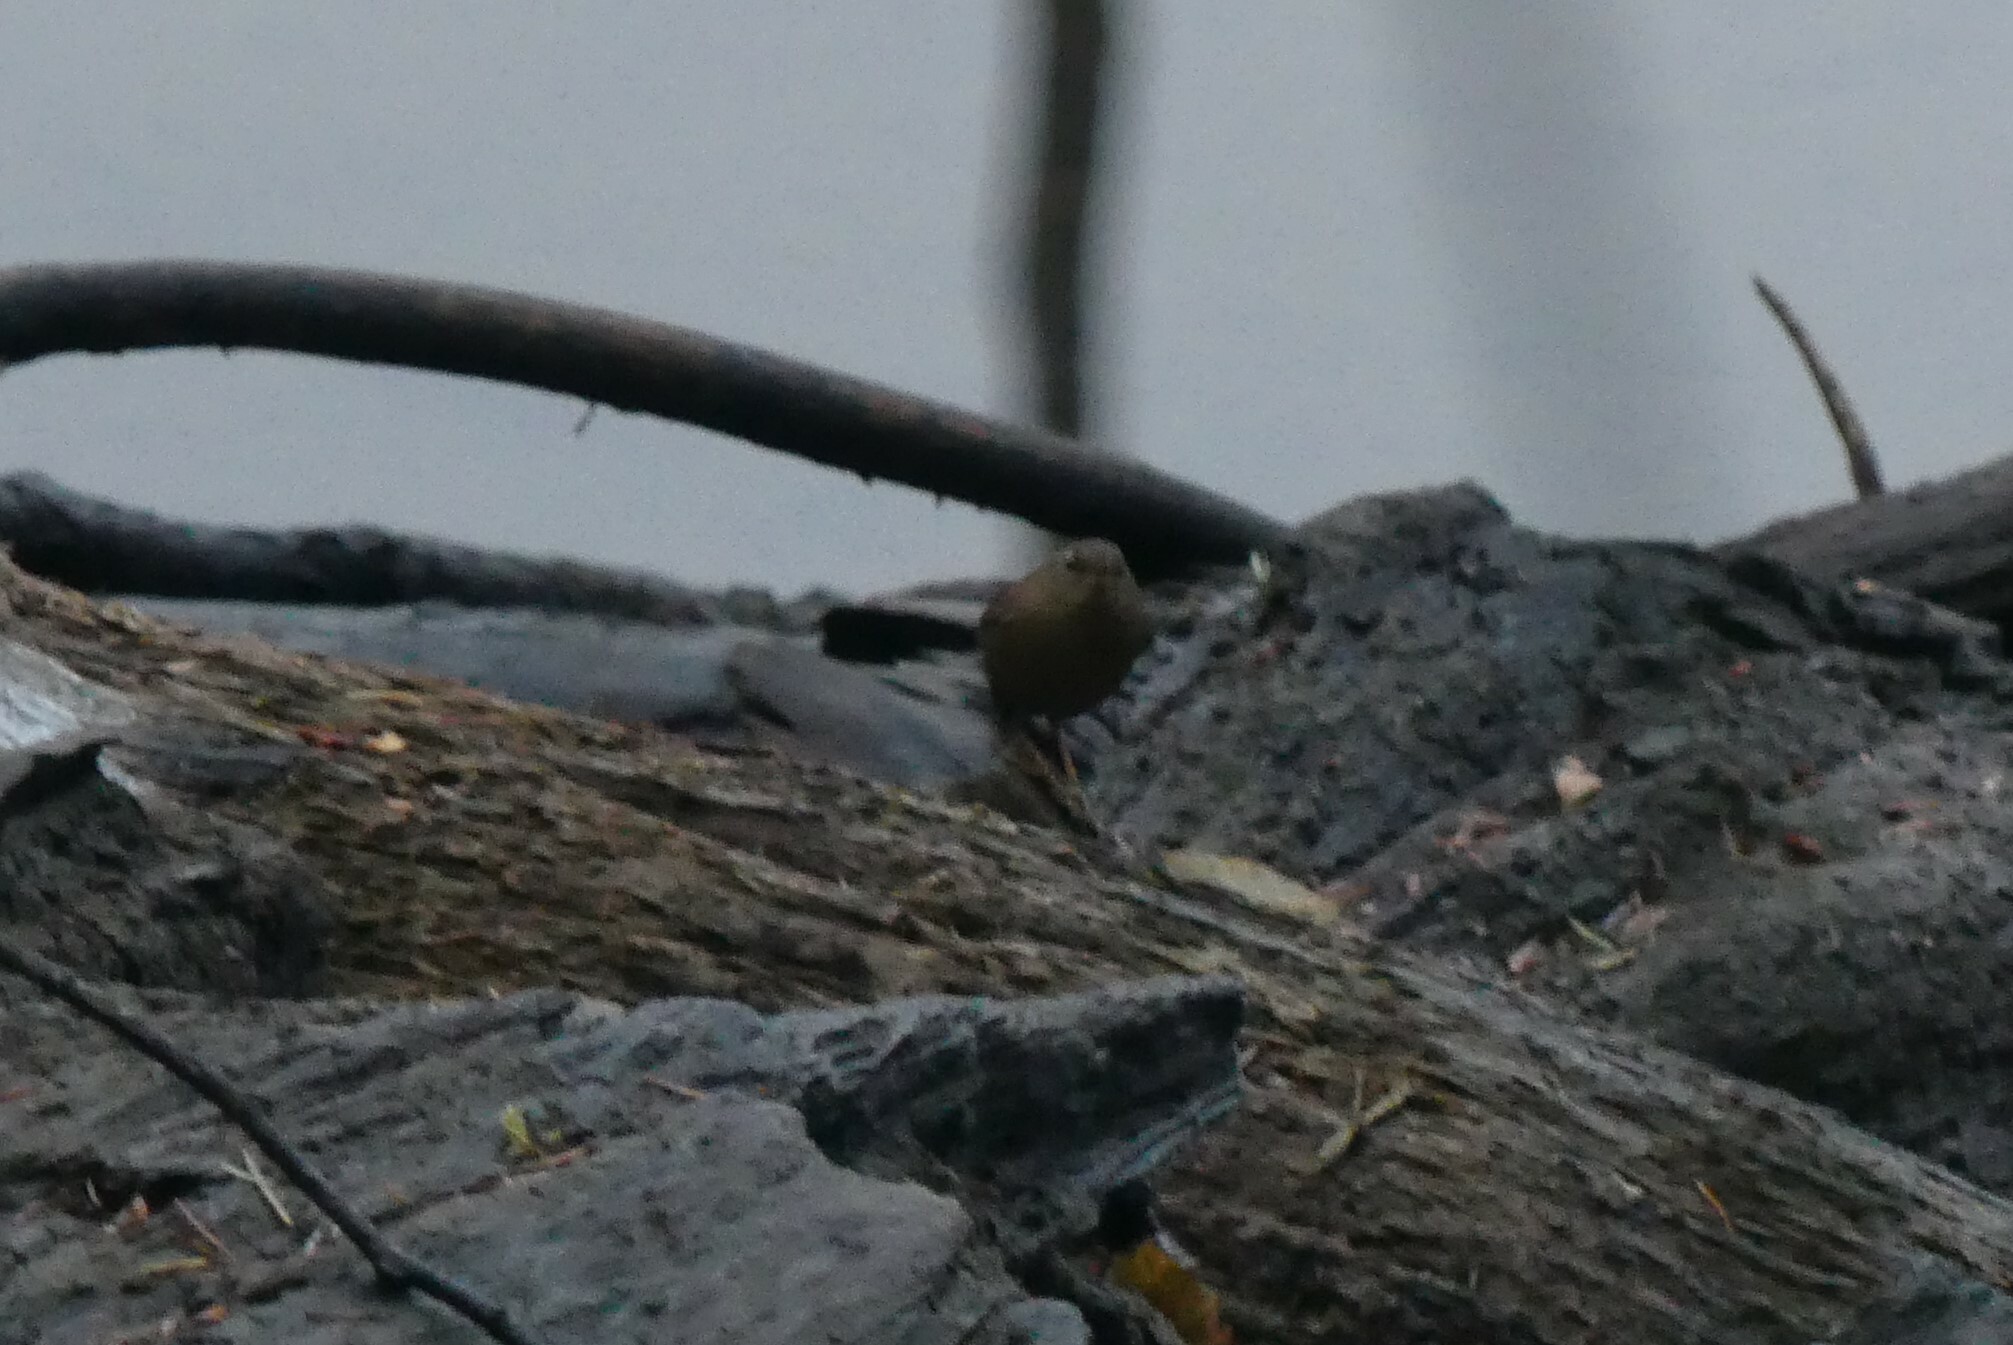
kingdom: Animalia
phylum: Chordata
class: Aves
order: Passeriformes
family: Troglodytidae
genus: Troglodytes
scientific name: Troglodytes pacificus
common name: Pacific wren
